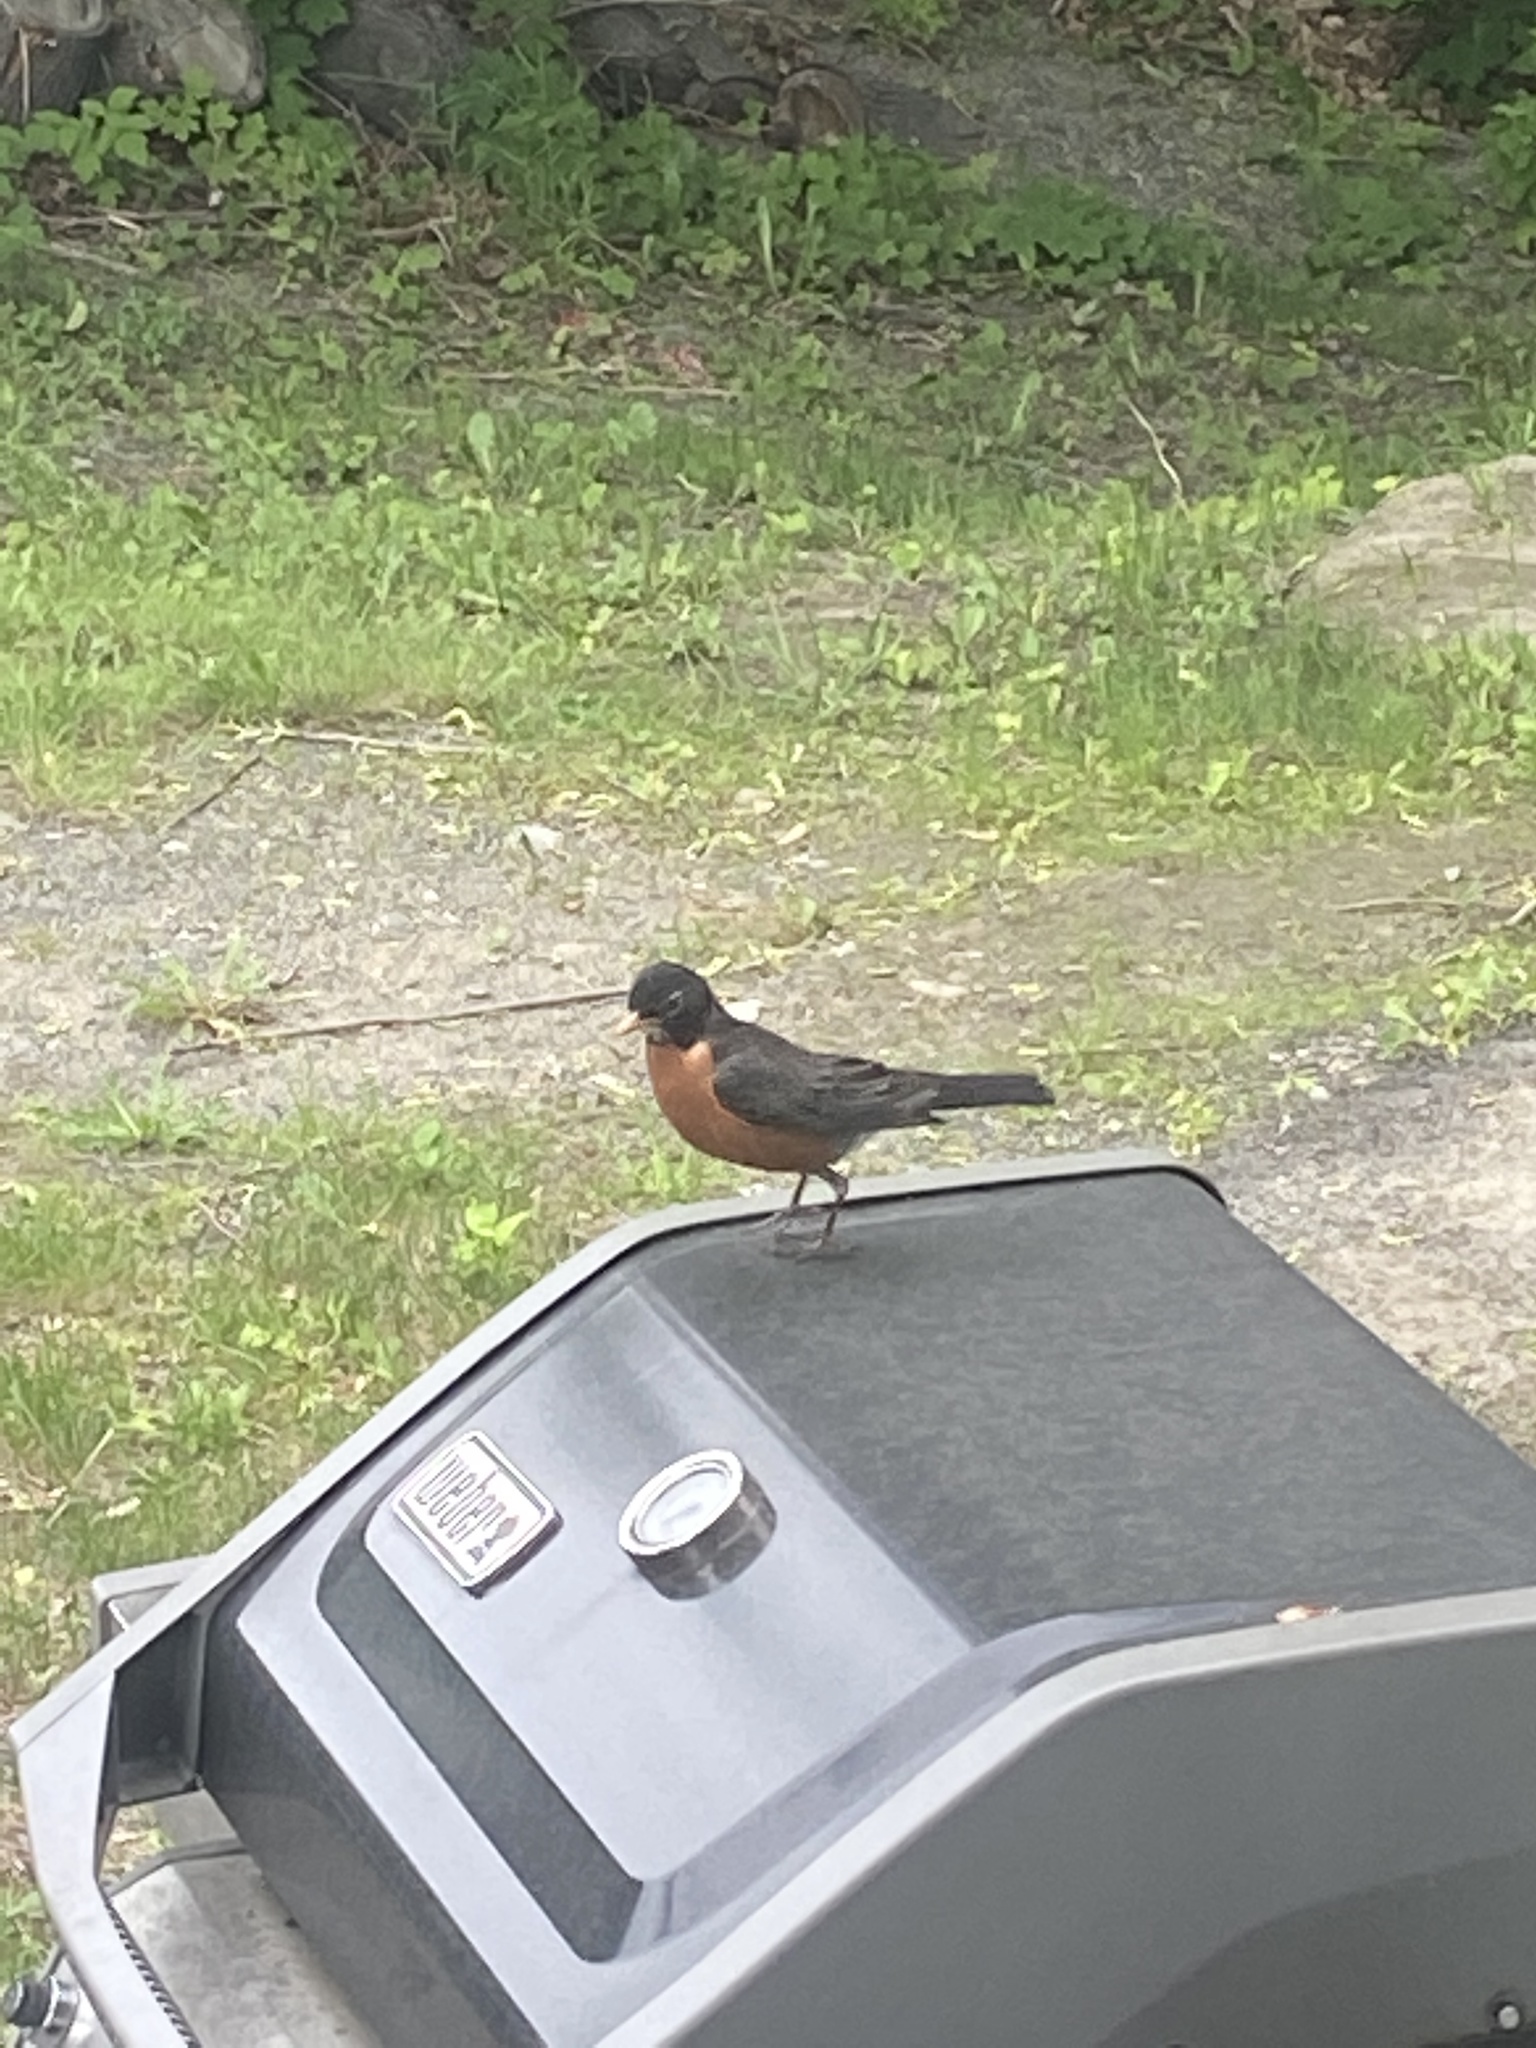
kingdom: Animalia
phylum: Chordata
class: Aves
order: Passeriformes
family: Turdidae
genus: Turdus
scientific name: Turdus migratorius
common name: American robin
